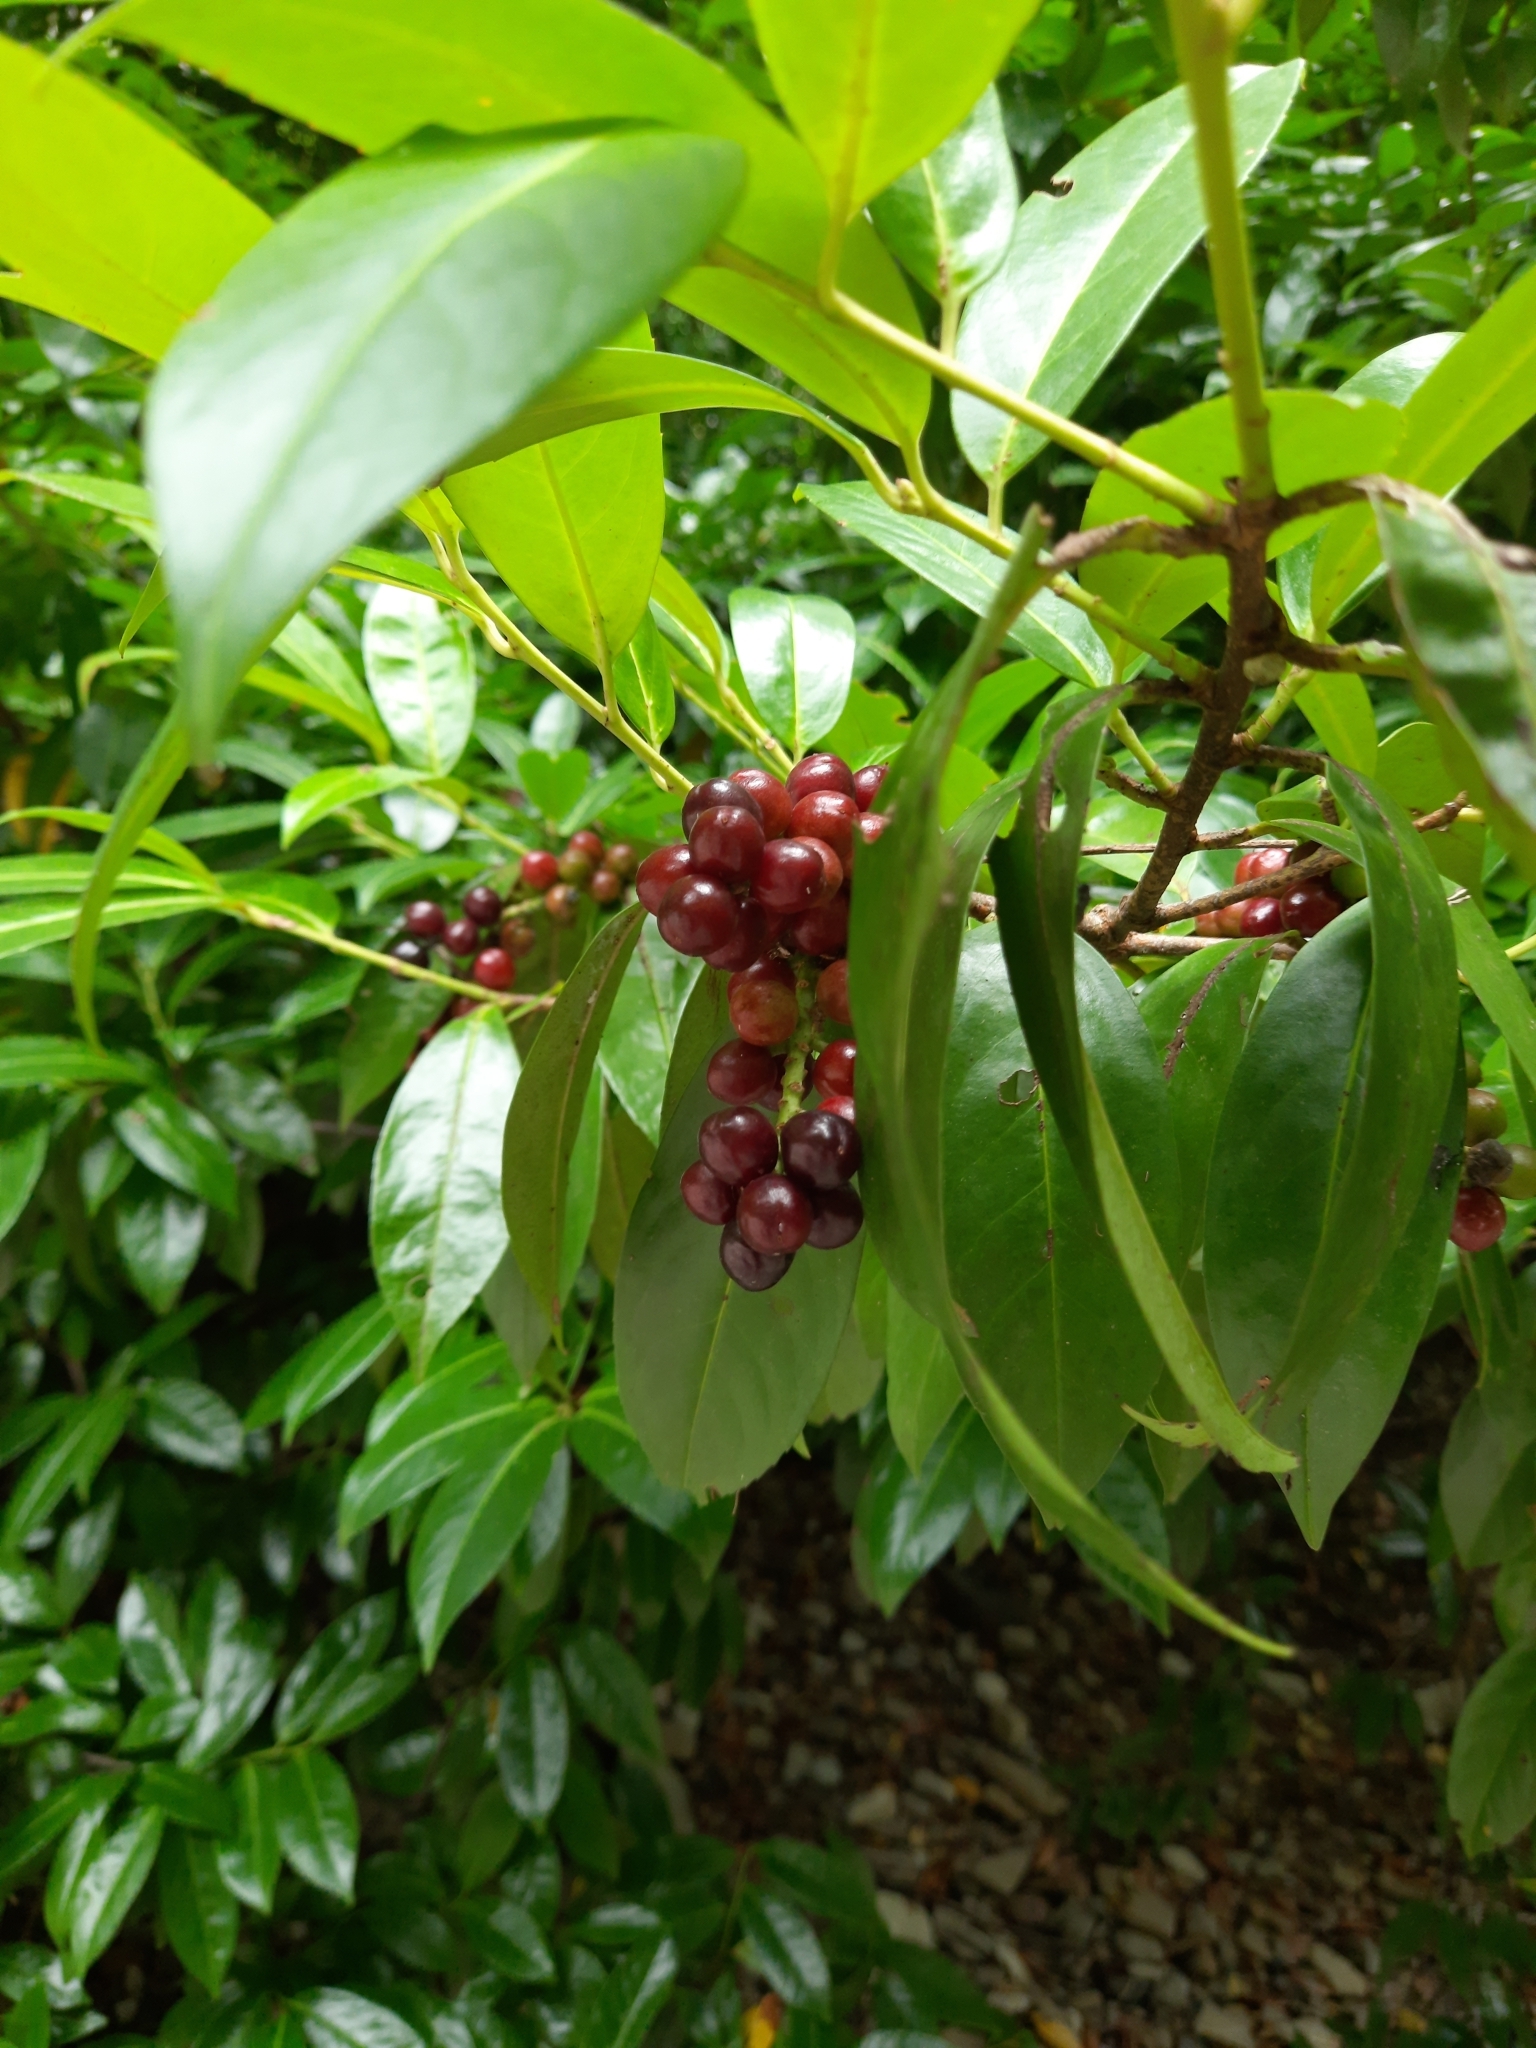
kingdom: Plantae
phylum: Tracheophyta
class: Magnoliopsida
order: Rosales
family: Rosaceae
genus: Prunus
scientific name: Prunus laurocerasus
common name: Cherry laurel
